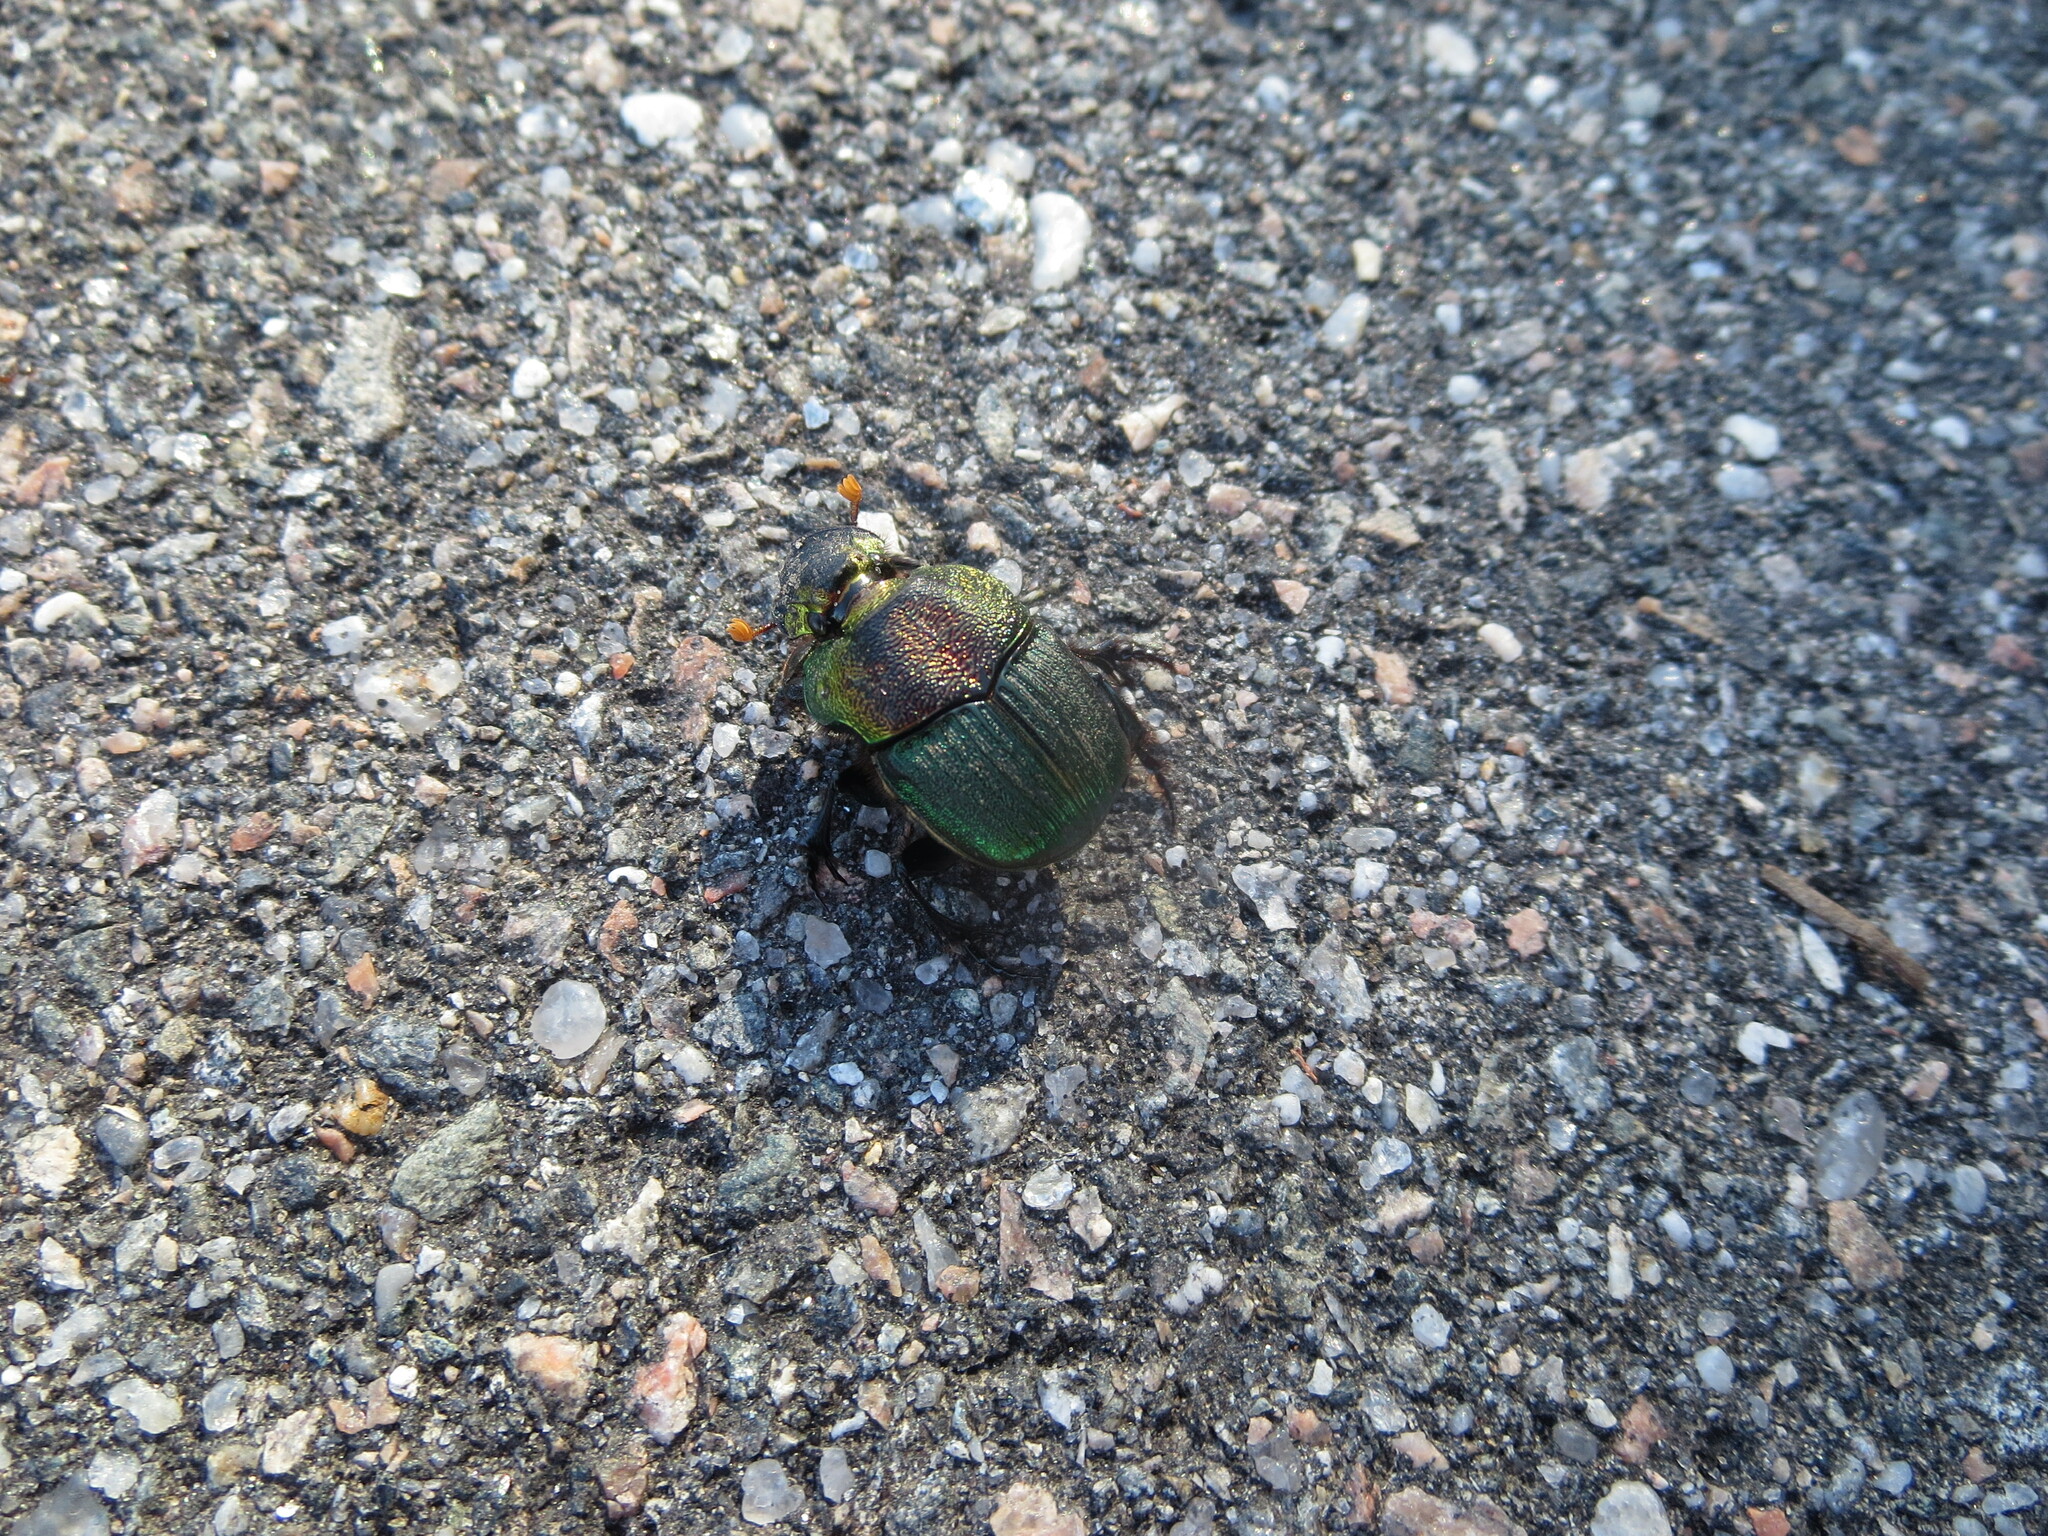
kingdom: Animalia
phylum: Arthropoda
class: Insecta
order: Coleoptera
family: Scarabaeidae
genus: Phanaeus
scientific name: Phanaeus vindex
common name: Rainbow scarab
